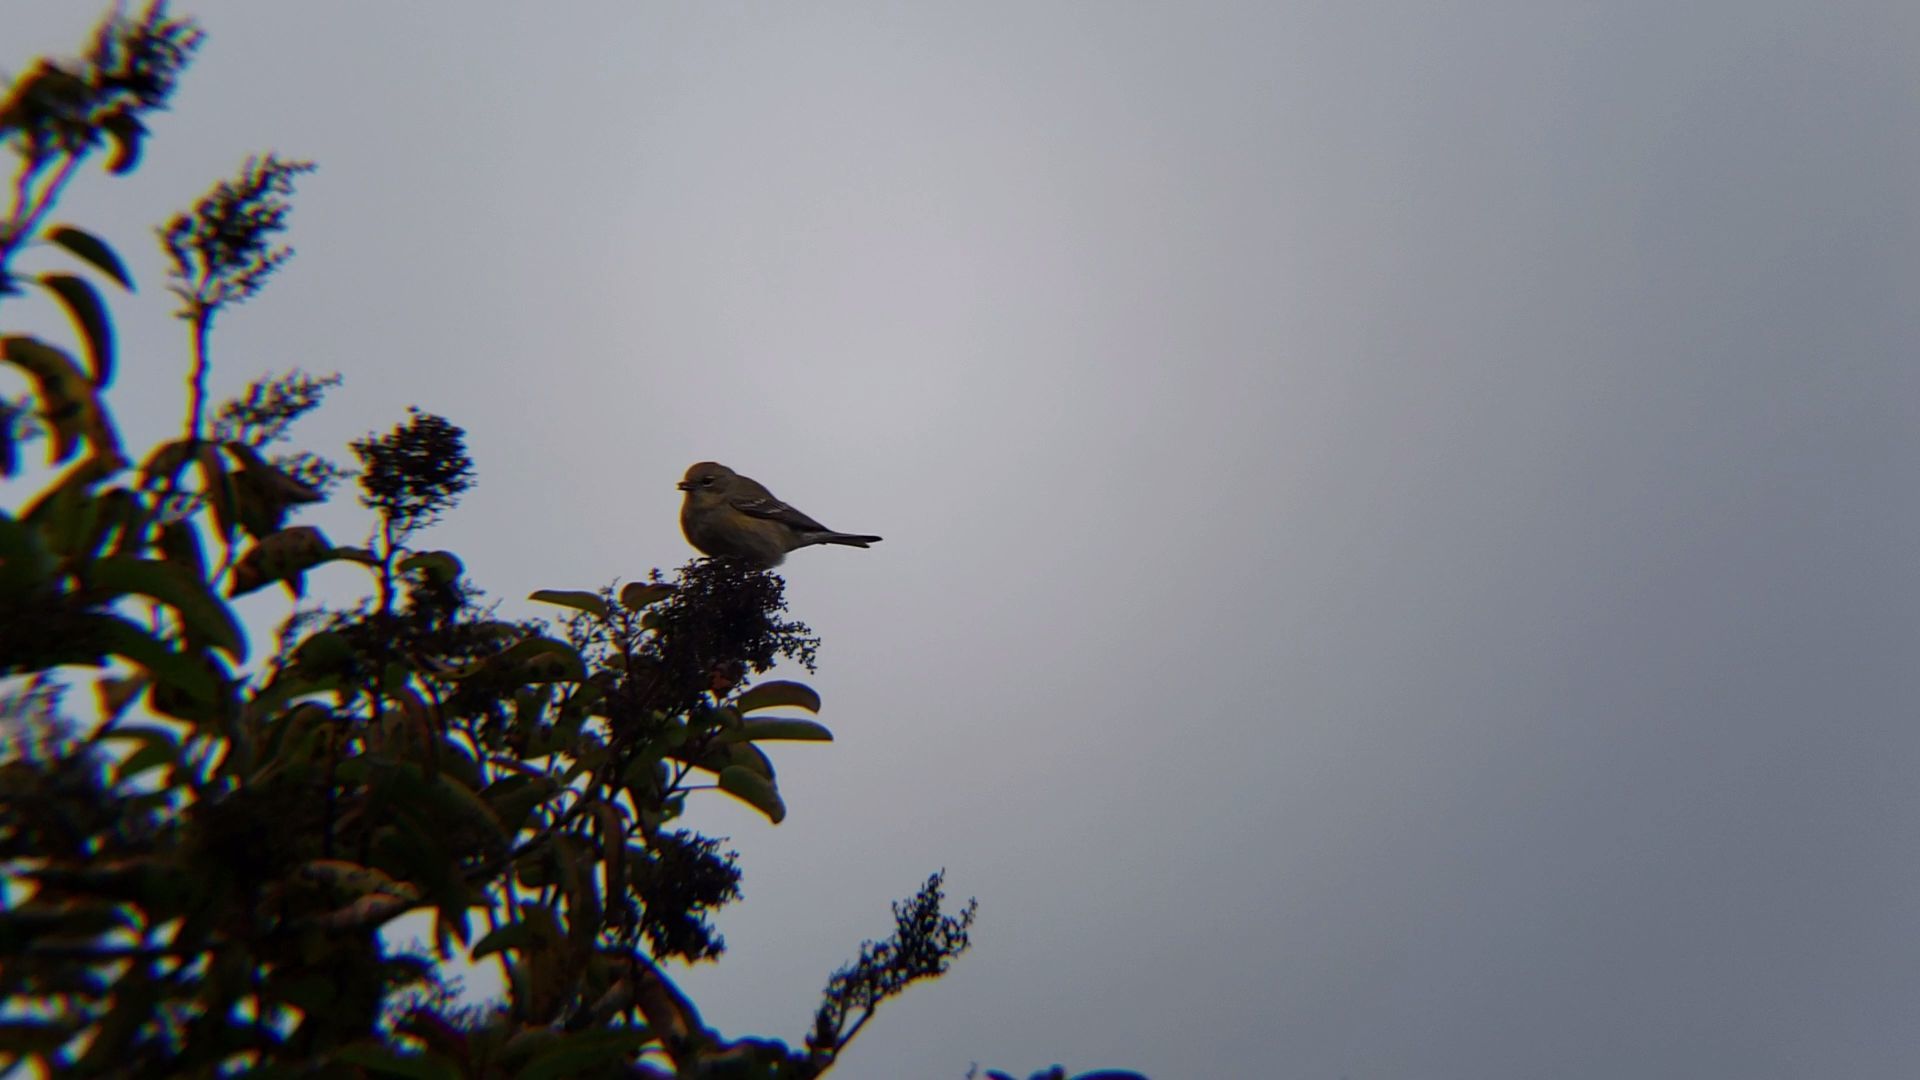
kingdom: Animalia
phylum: Chordata
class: Aves
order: Passeriformes
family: Parulidae
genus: Setophaga
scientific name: Setophaga coronata
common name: Myrtle warbler
